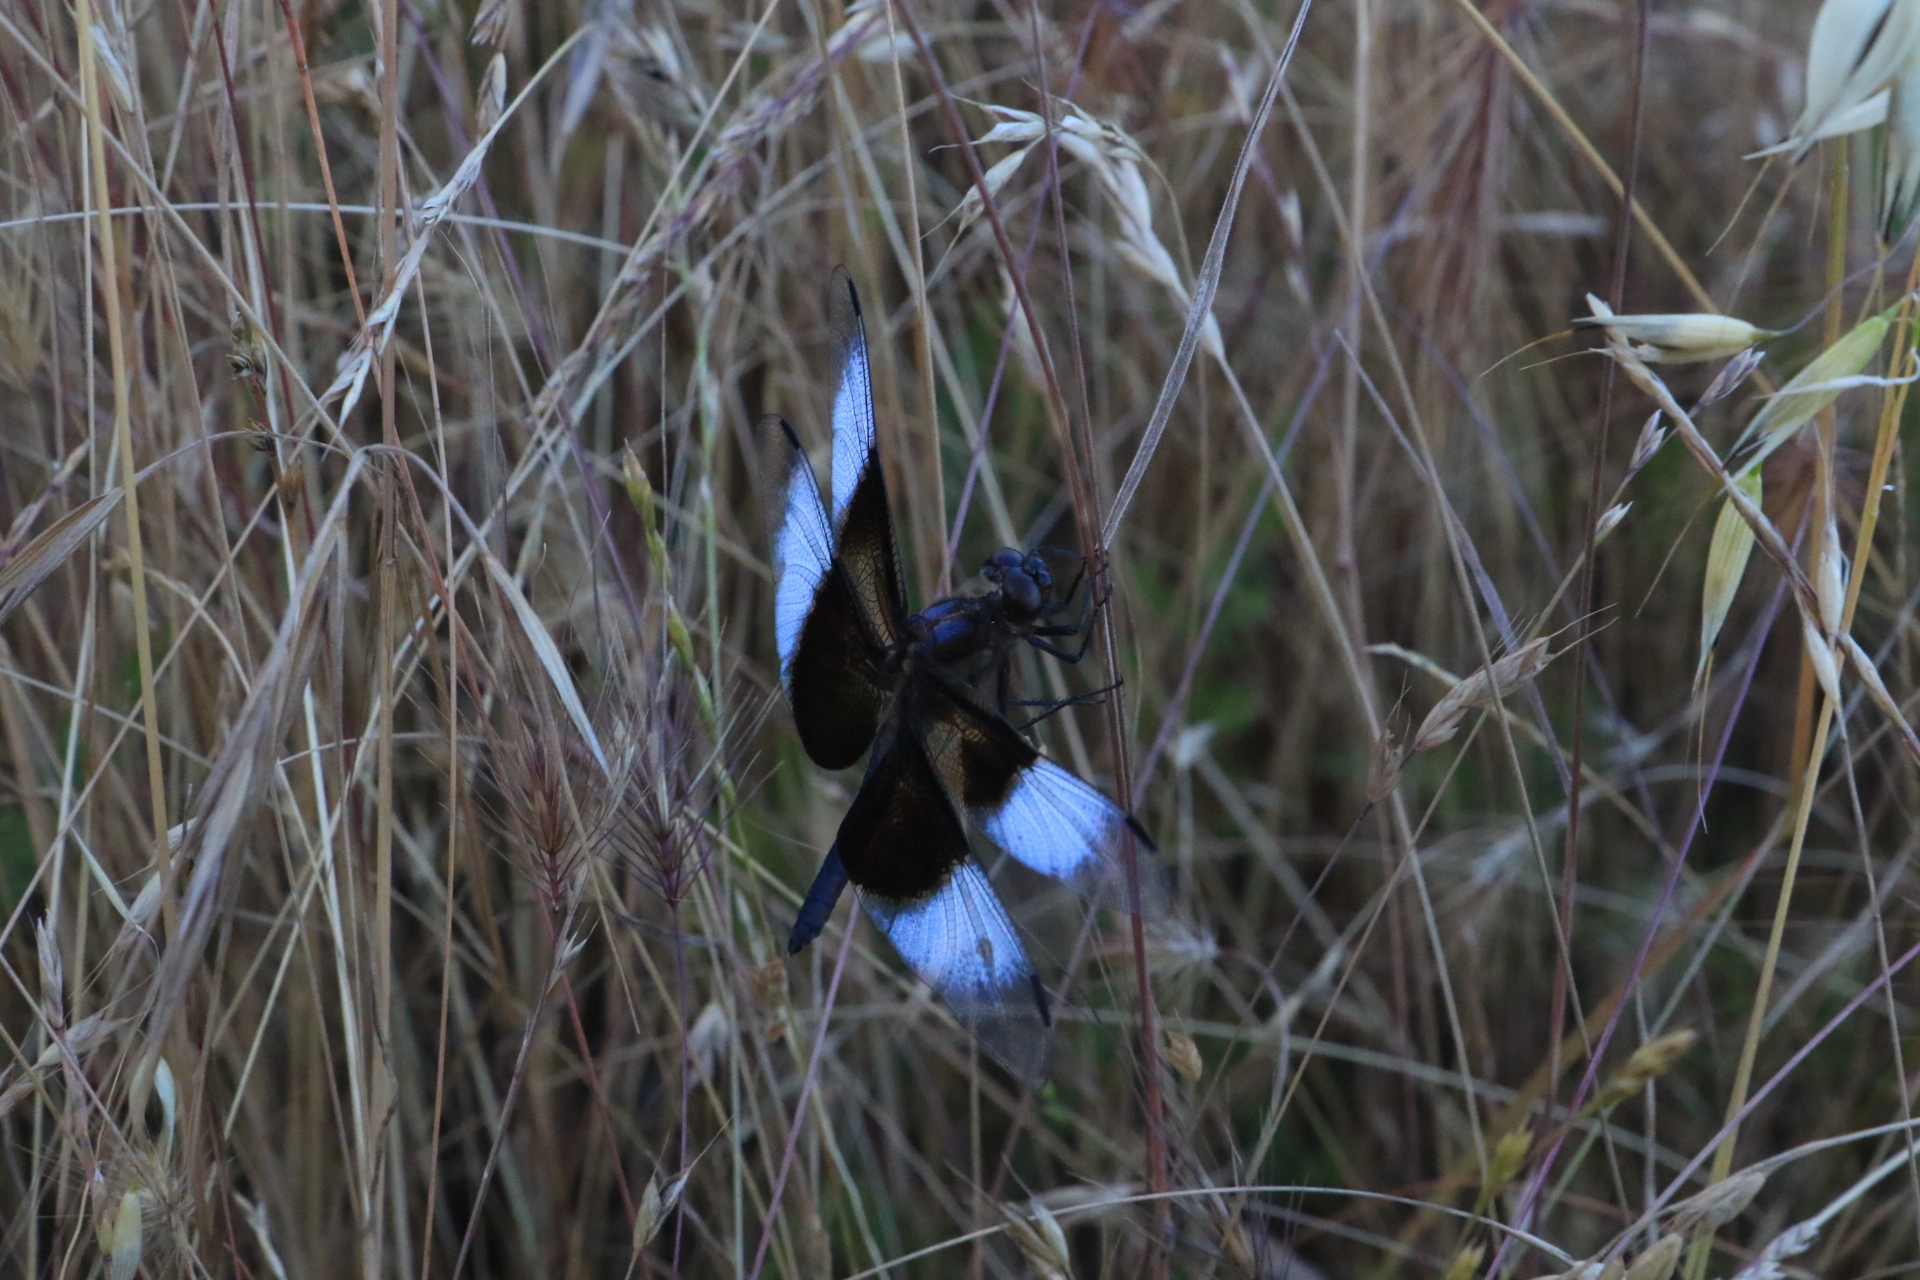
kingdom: Animalia
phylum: Arthropoda
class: Insecta
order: Odonata
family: Libellulidae
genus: Libellula
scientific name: Libellula luctuosa
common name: Widow skimmer
